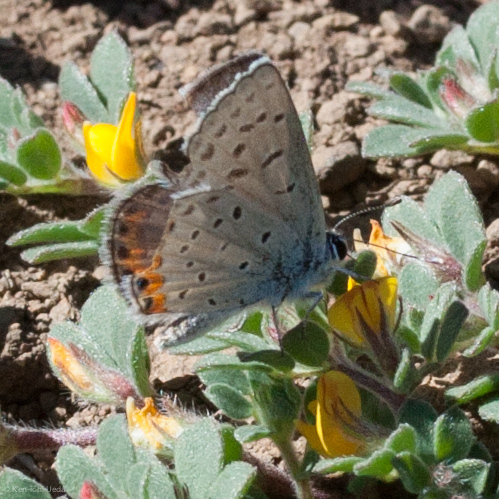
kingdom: Animalia
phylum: Arthropoda
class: Insecta
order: Lepidoptera
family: Lycaenidae
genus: Icaricia
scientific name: Icaricia acmon
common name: Acmon blue
